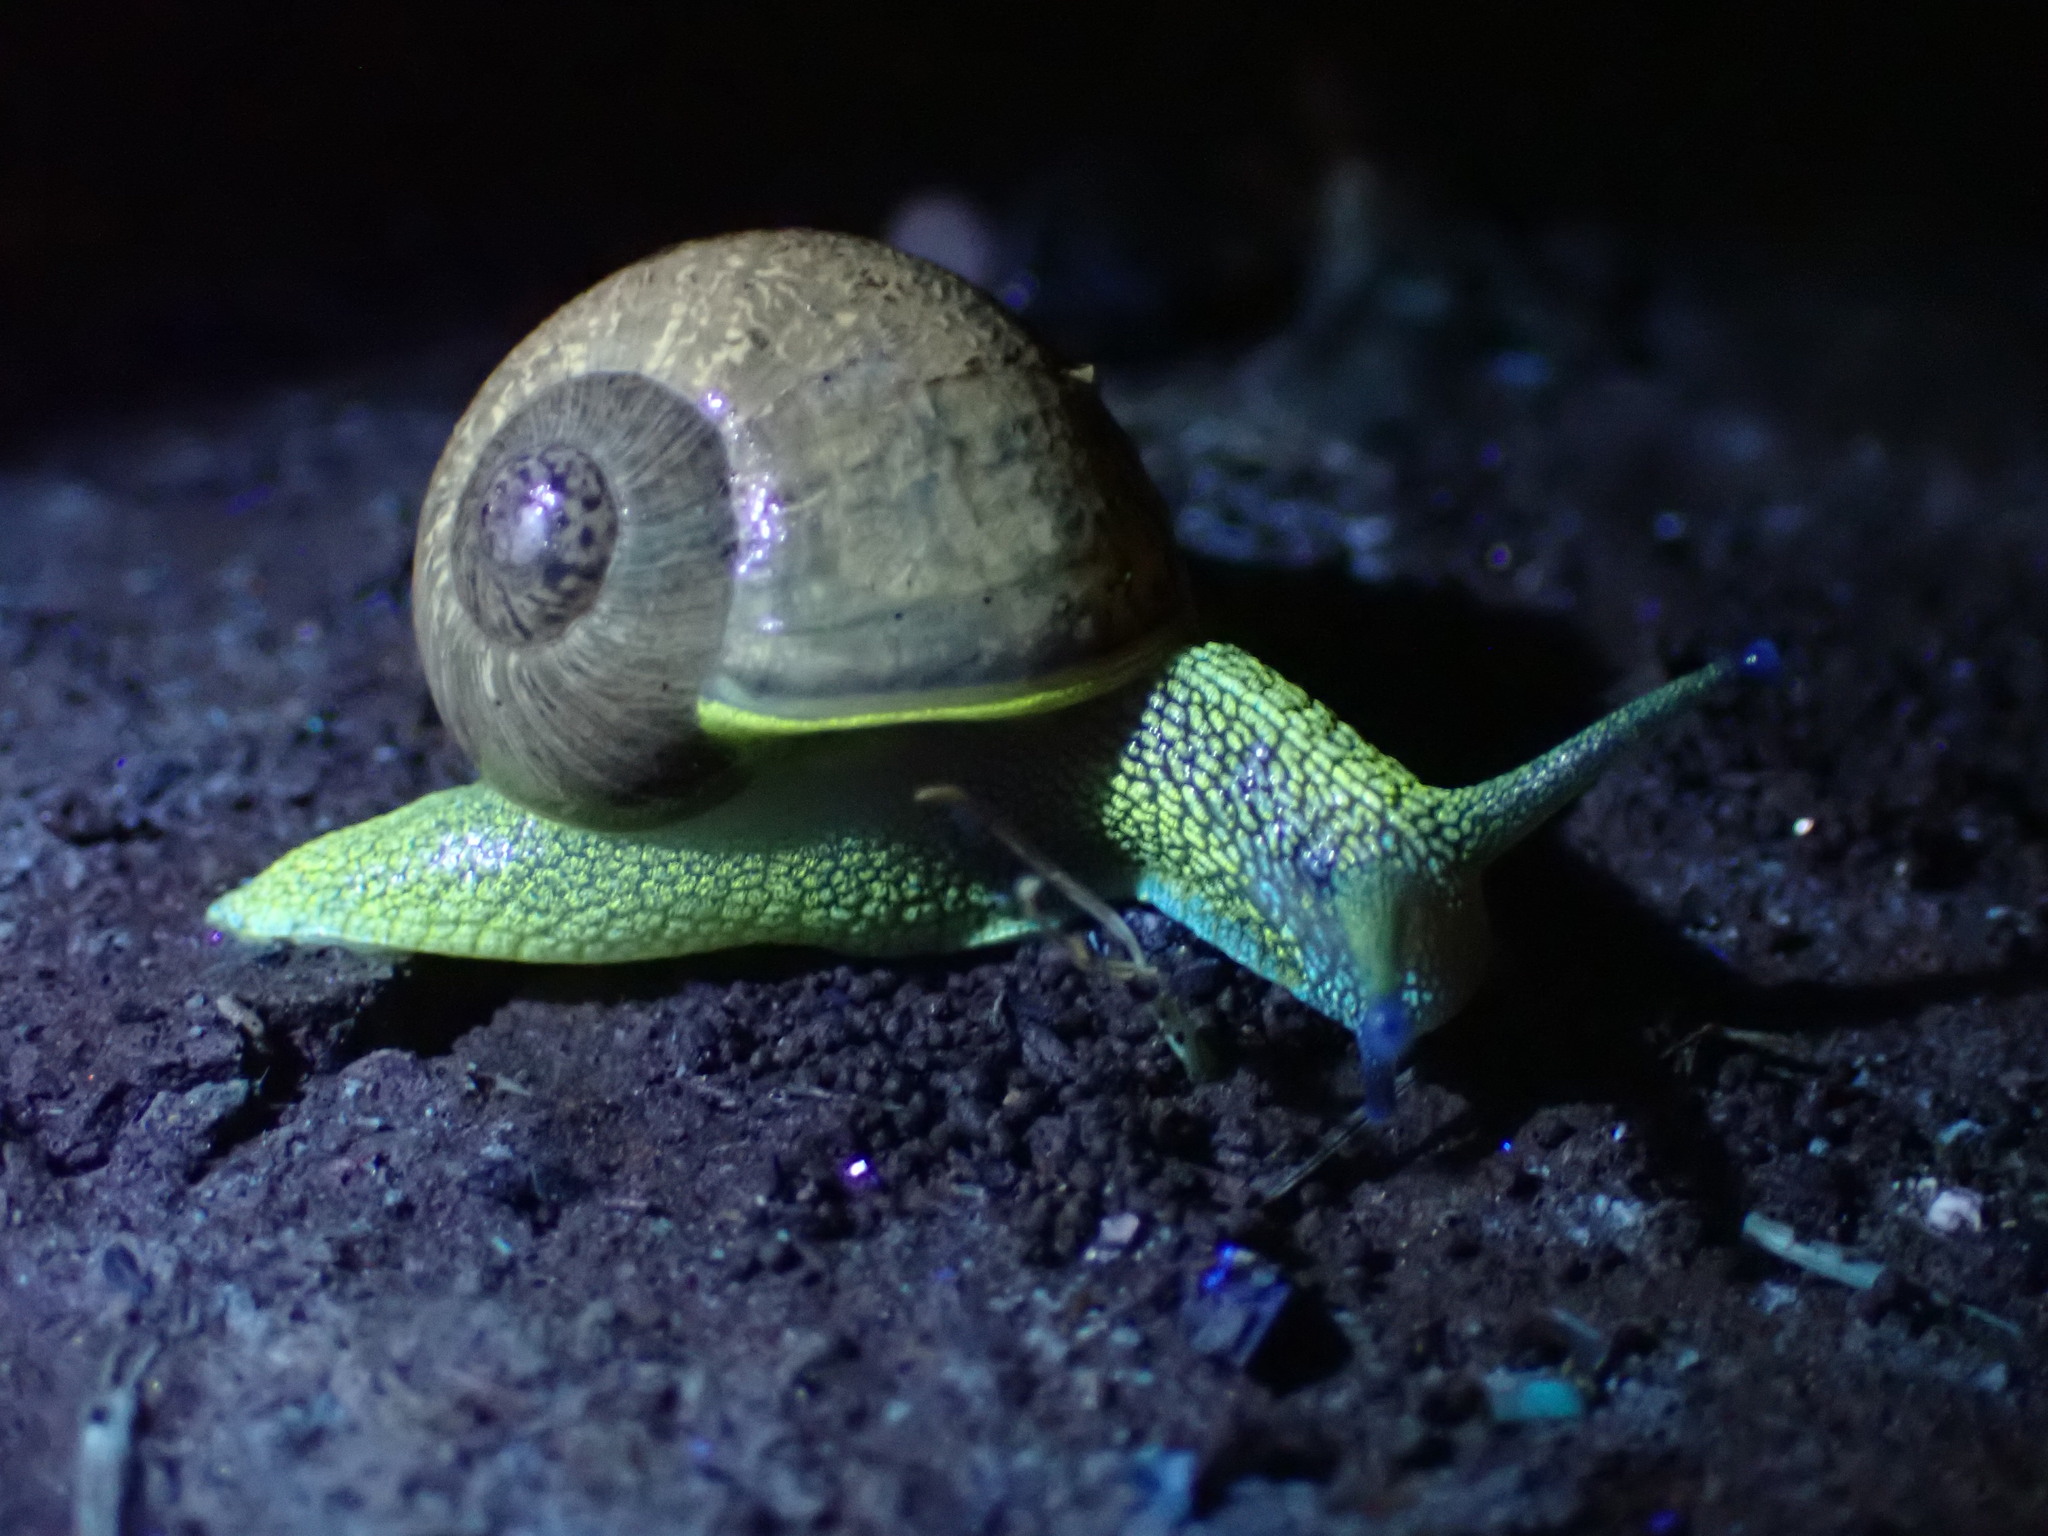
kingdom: Animalia
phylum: Mollusca
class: Gastropoda
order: Stylommatophora
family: Helicidae
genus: Cornu
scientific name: Cornu aspersum
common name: Brown garden snail
